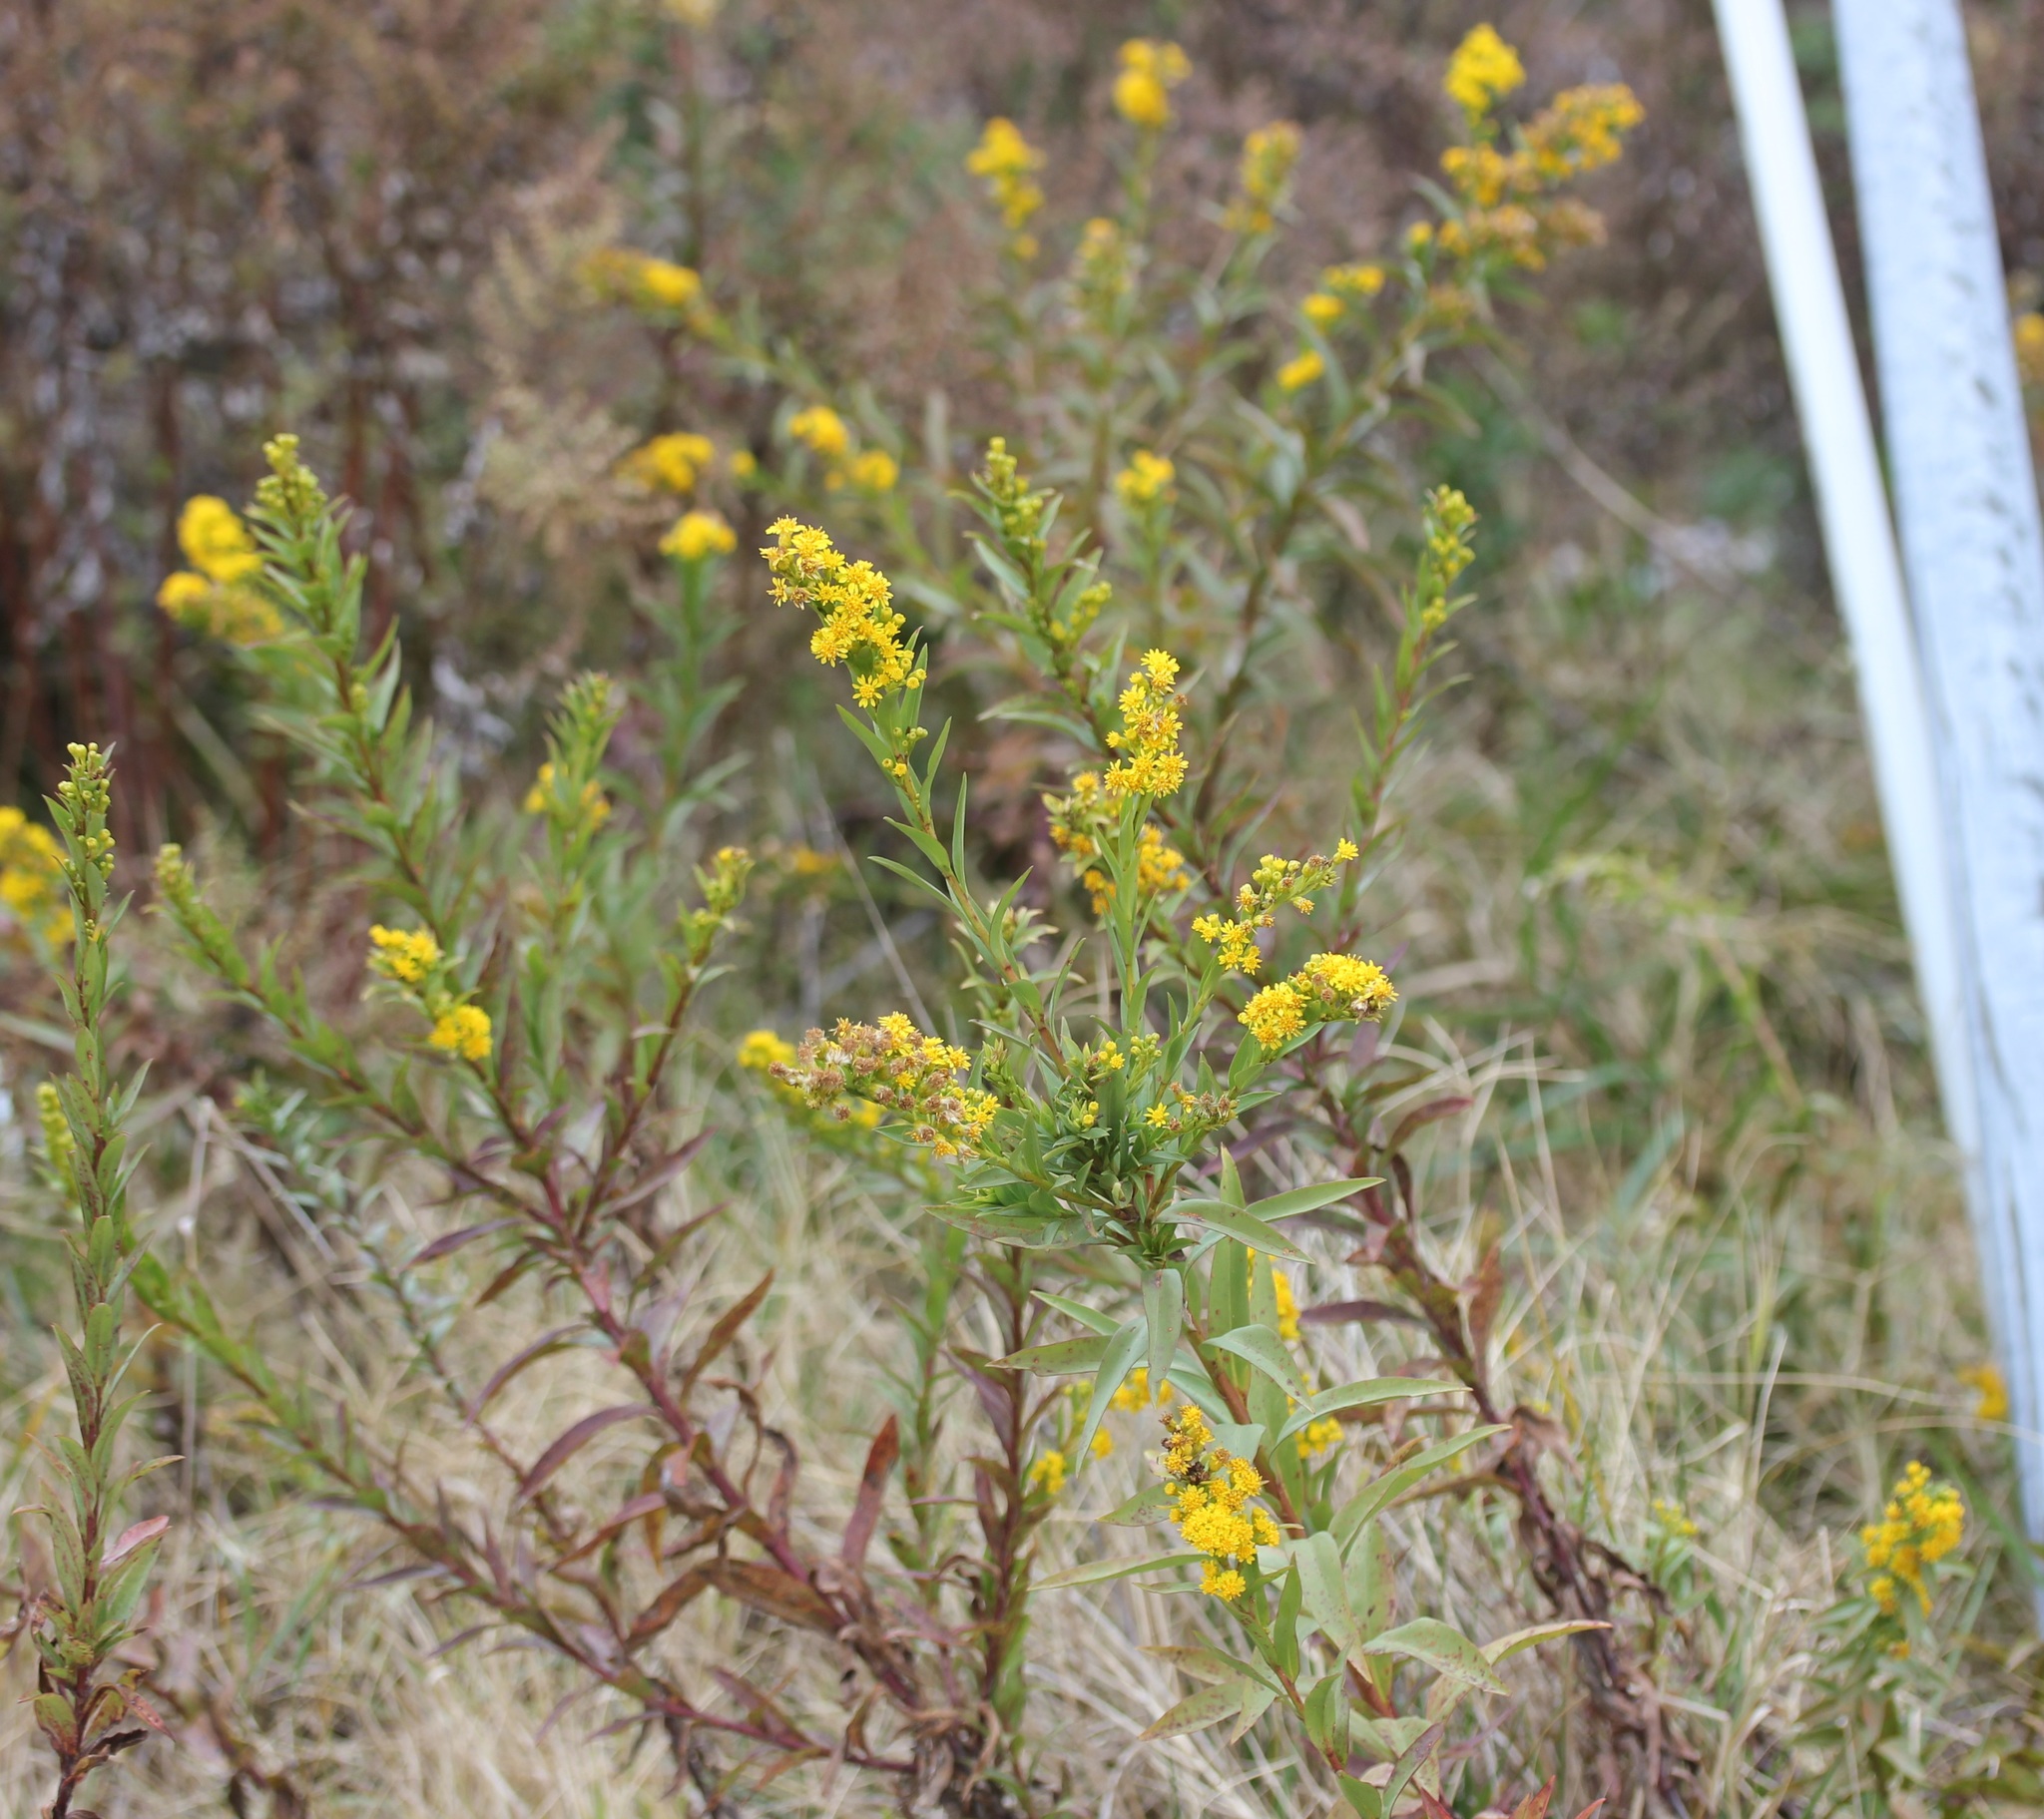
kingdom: Plantae
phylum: Tracheophyta
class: Magnoliopsida
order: Asterales
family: Asteraceae
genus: Solidago
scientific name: Solidago sempervirens
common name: Salt-marsh goldenrod
